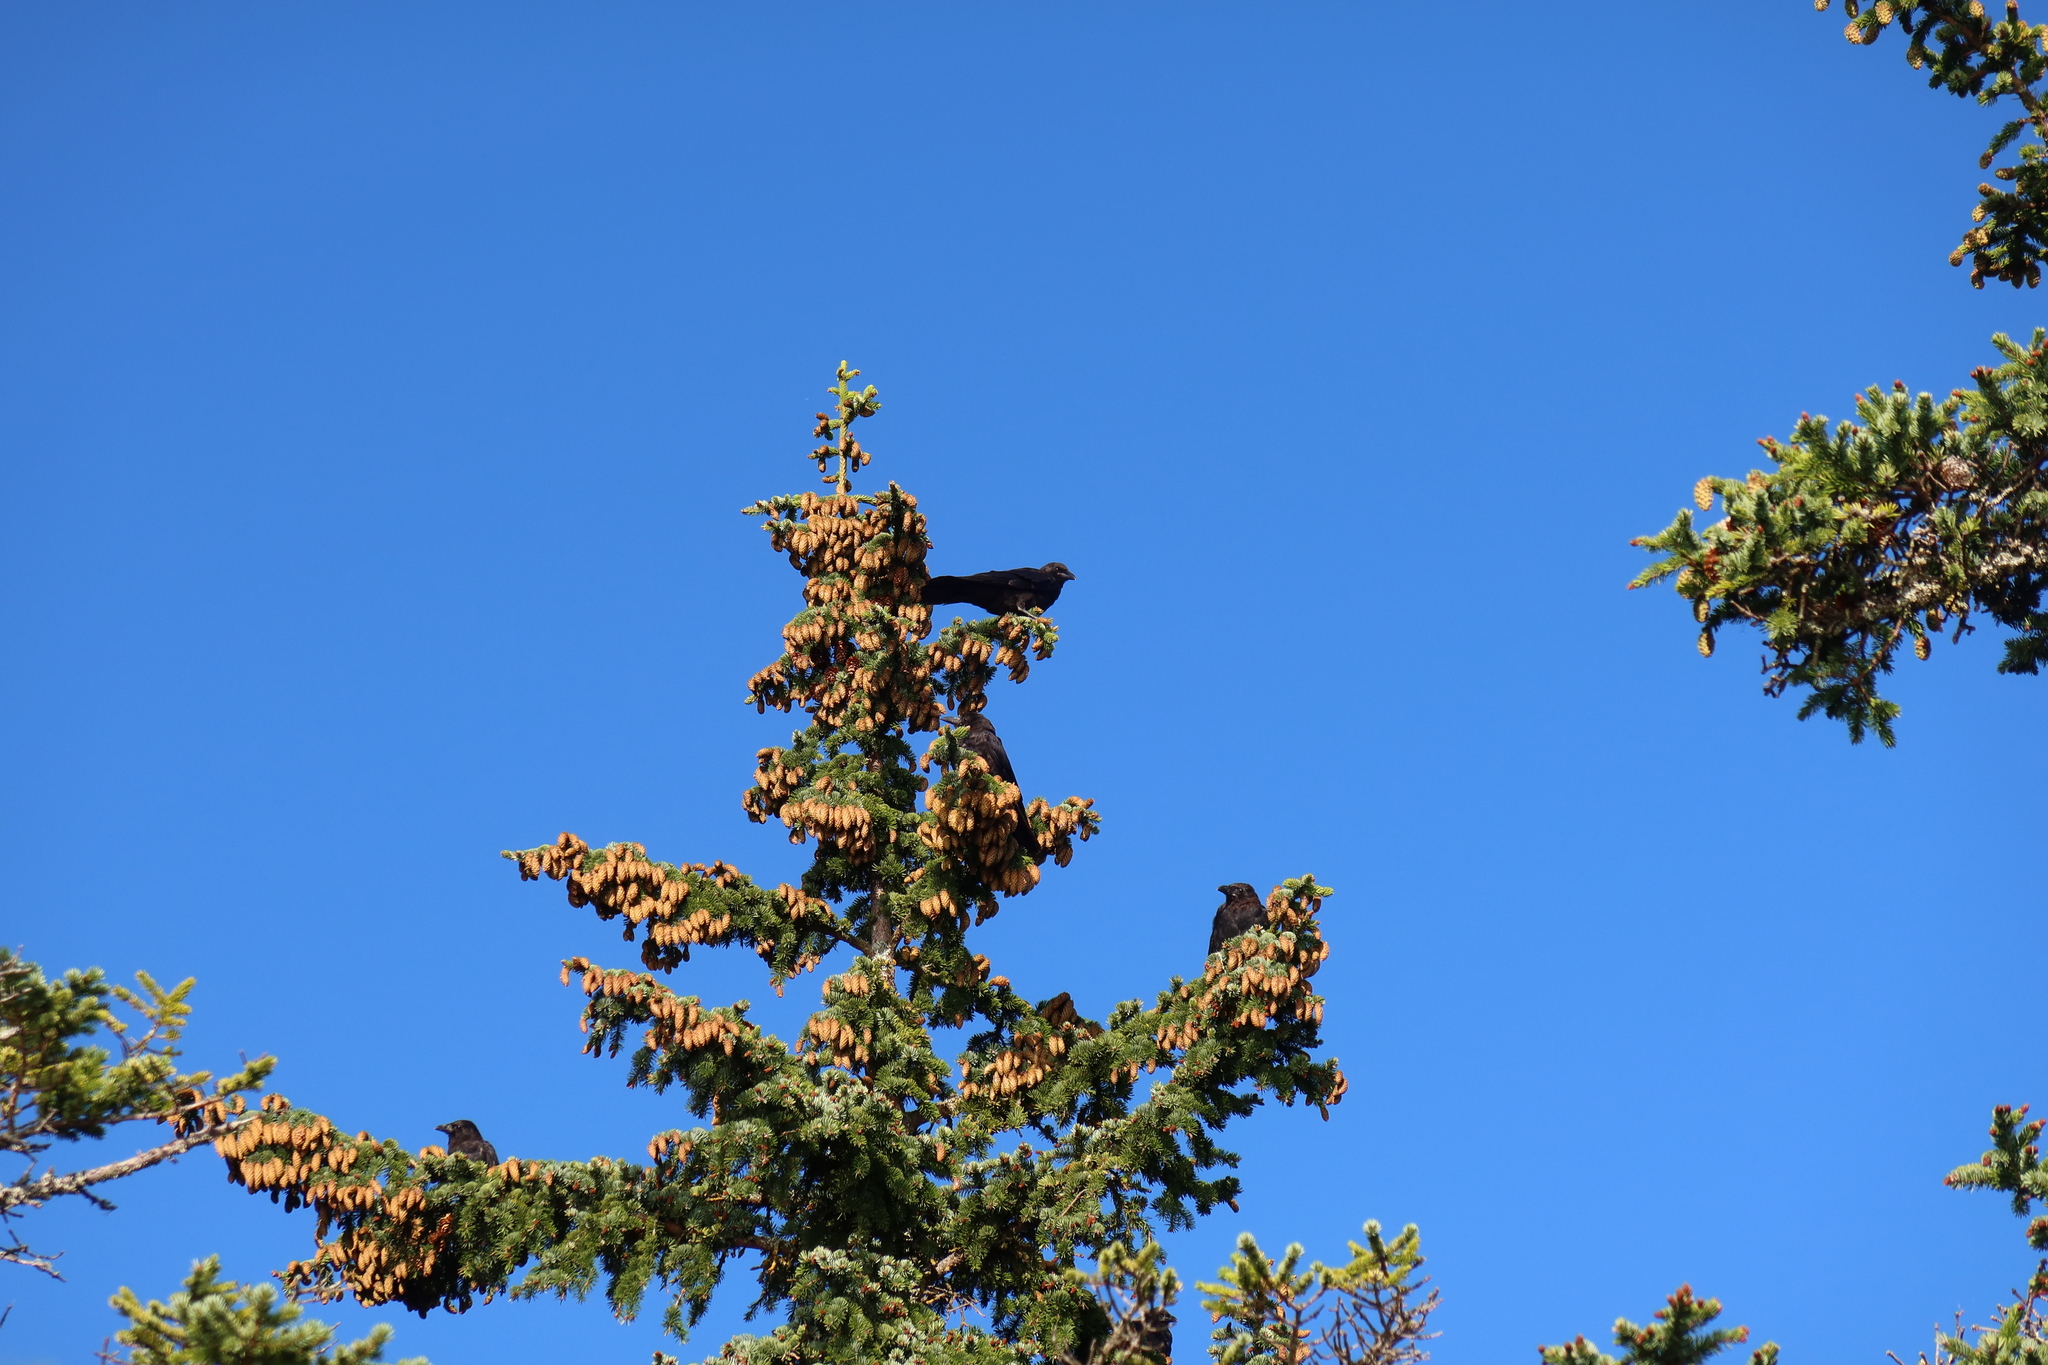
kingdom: Animalia
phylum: Chordata
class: Aves
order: Passeriformes
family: Corvidae
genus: Corvus
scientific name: Corvus brachyrhynchos
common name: American crow
